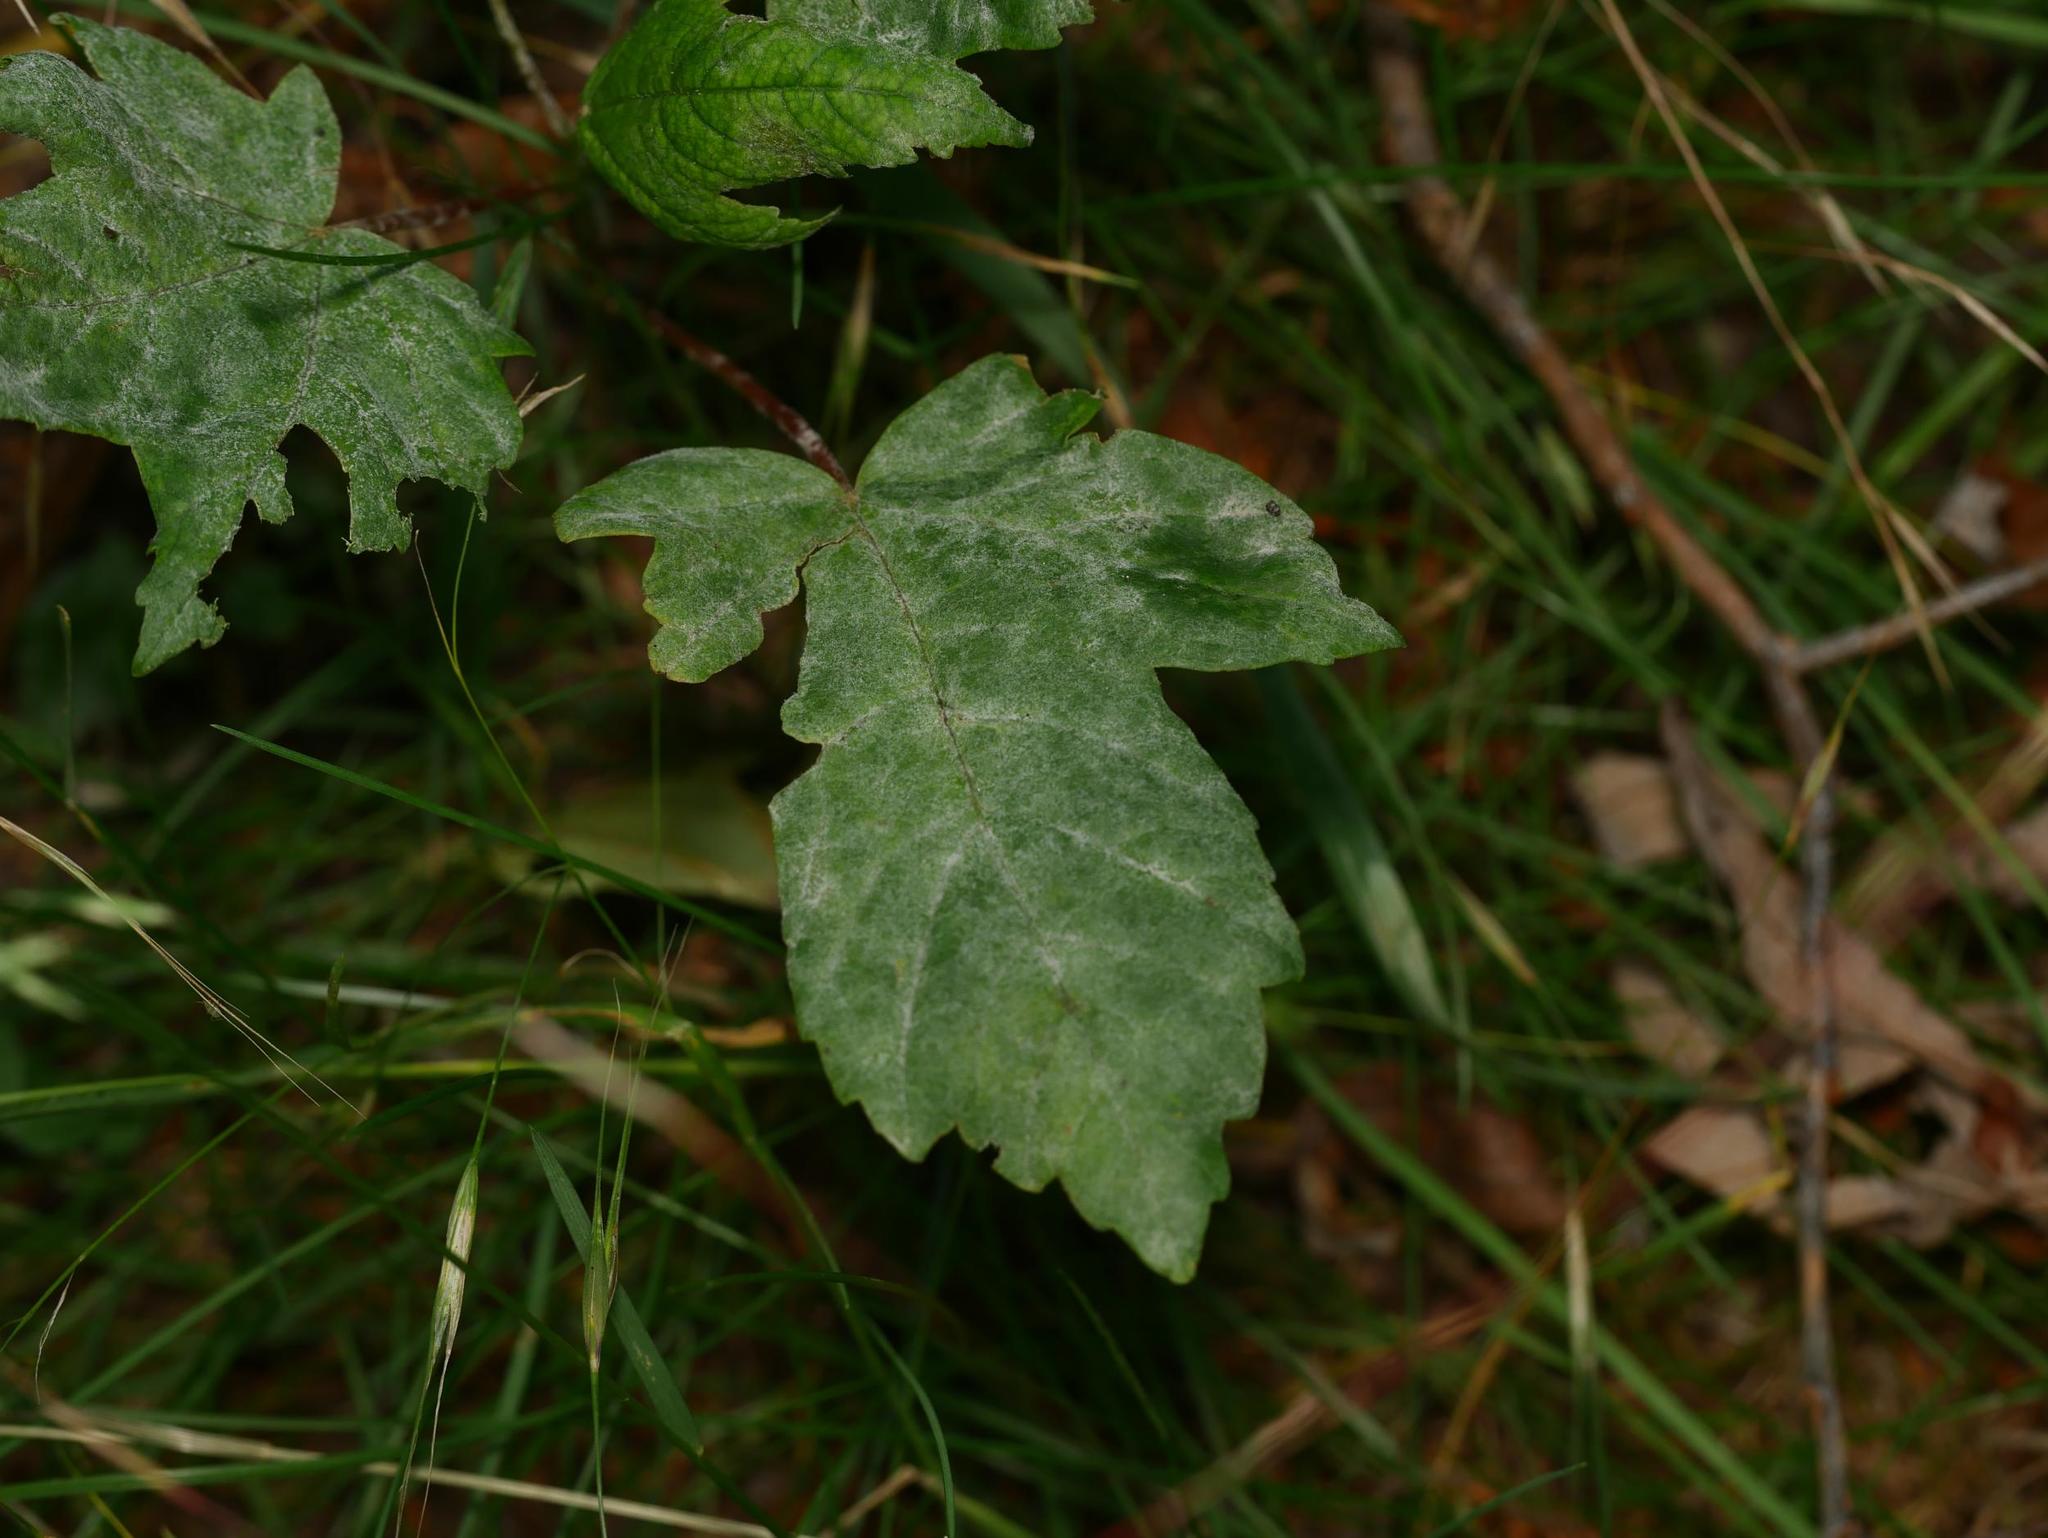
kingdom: Plantae
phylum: Tracheophyta
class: Magnoliopsida
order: Sapindales
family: Sapindaceae
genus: Acer
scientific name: Acer pseudoplatanus
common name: Sycamore
